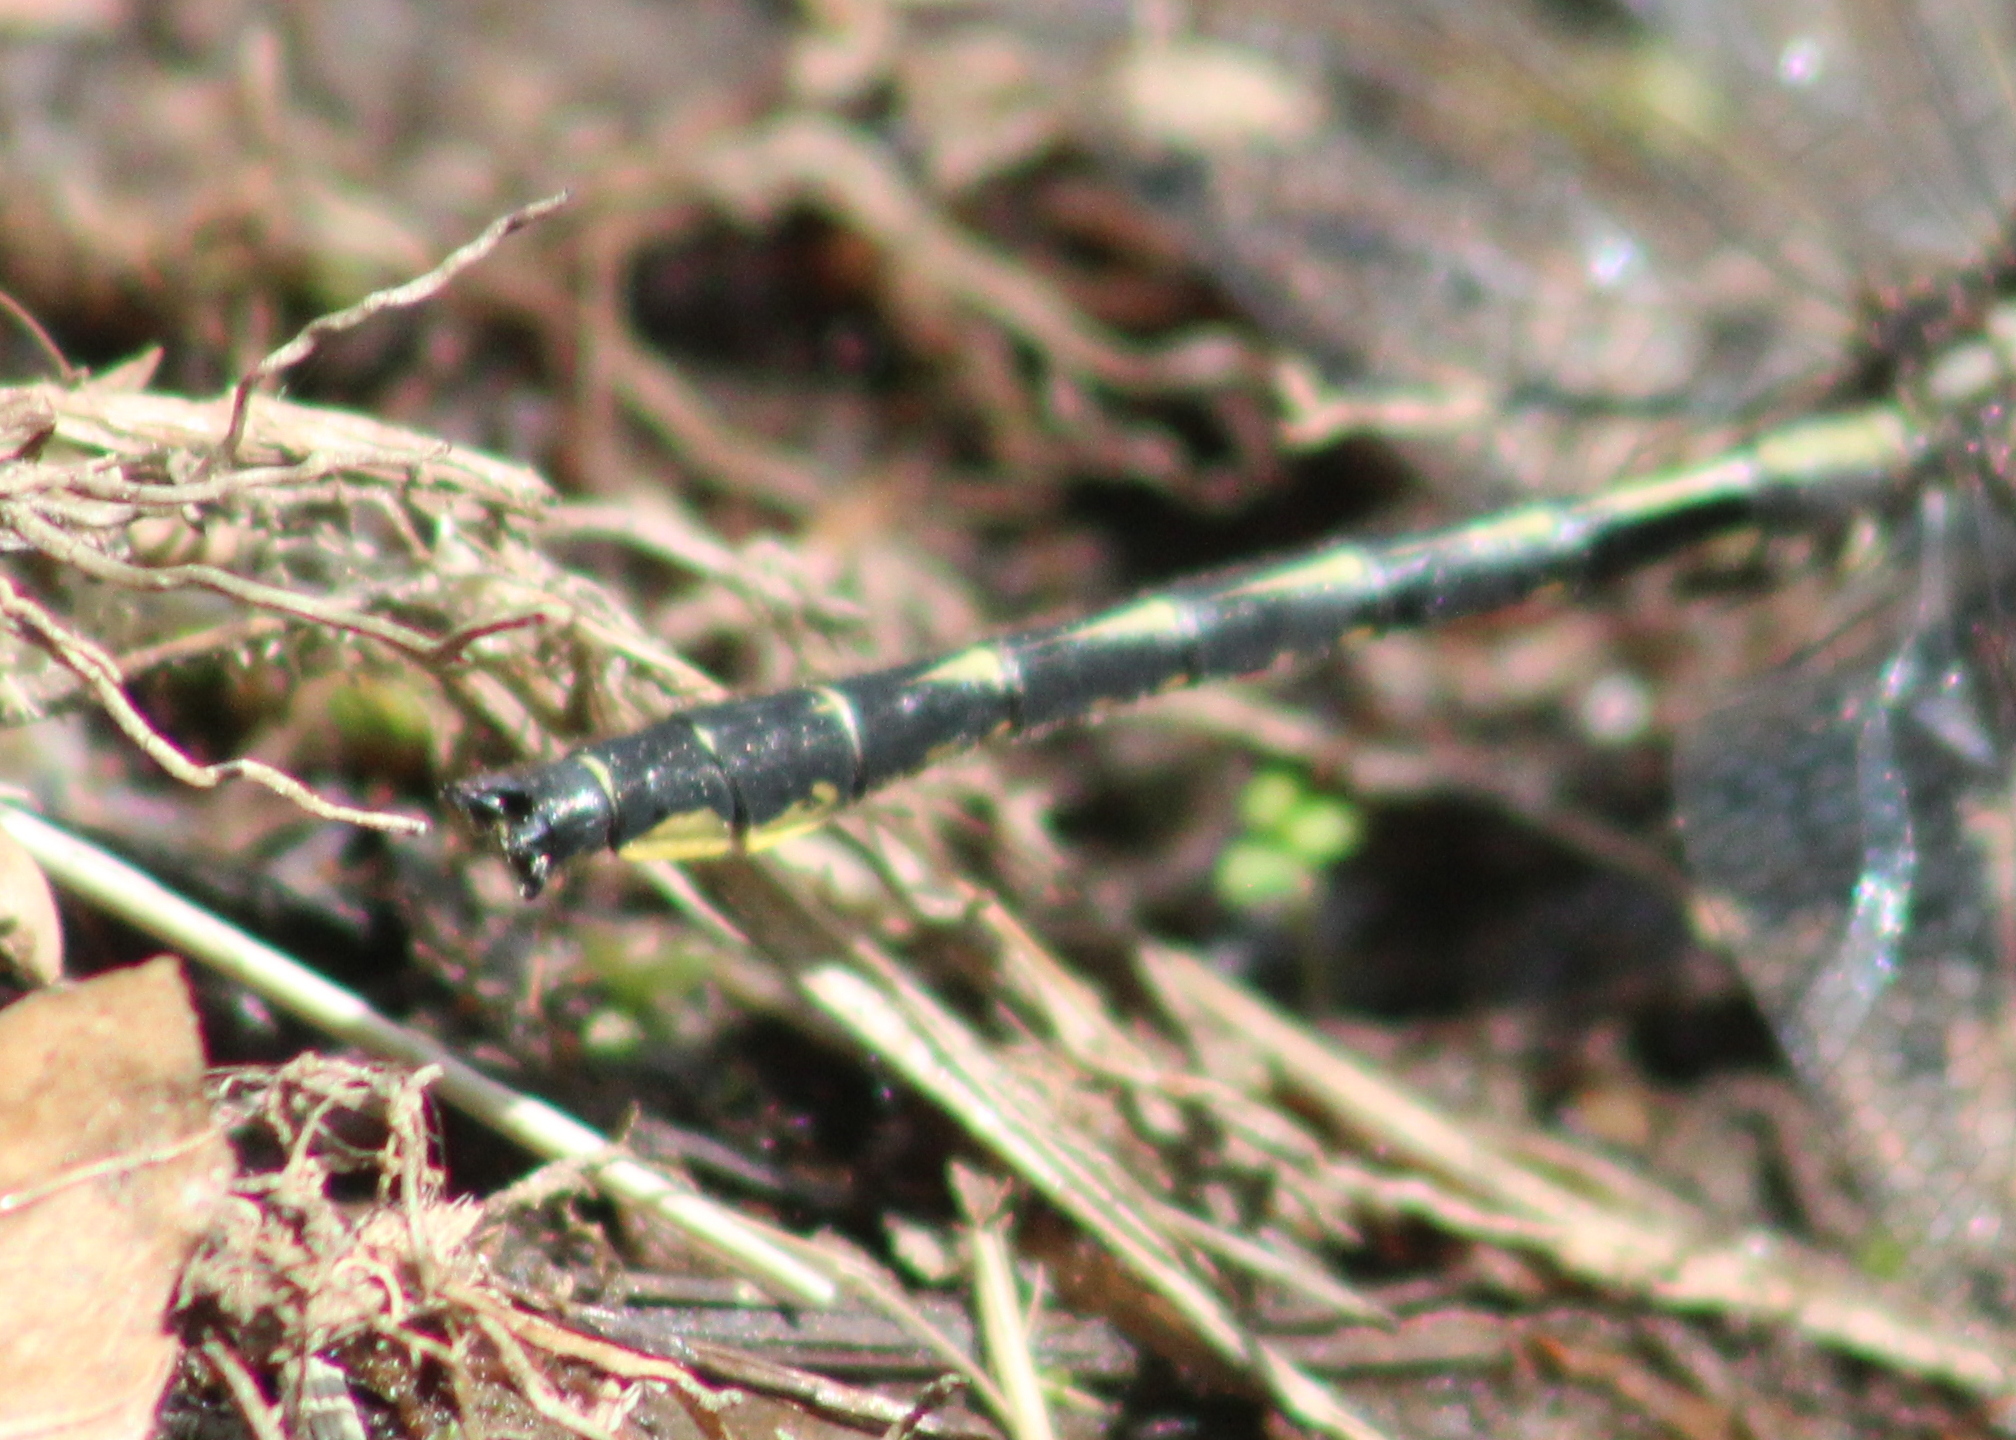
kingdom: Animalia
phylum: Arthropoda
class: Insecta
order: Odonata
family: Gomphidae
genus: Phanogomphus
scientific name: Phanogomphus borealis
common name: Beaverpond clubtail
